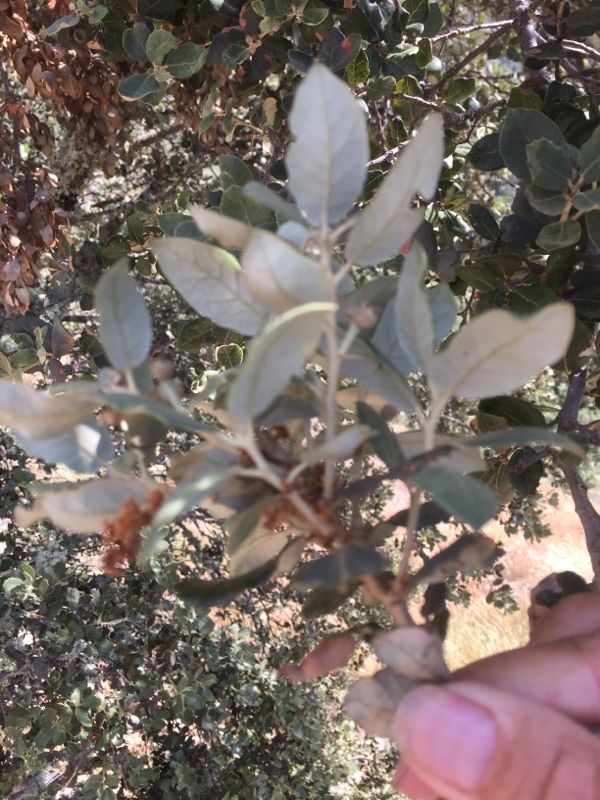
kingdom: Plantae
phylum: Tracheophyta
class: Magnoliopsida
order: Fagales
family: Fagaceae
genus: Quercus
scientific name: Quercus rotundifolia
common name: Holm oak
